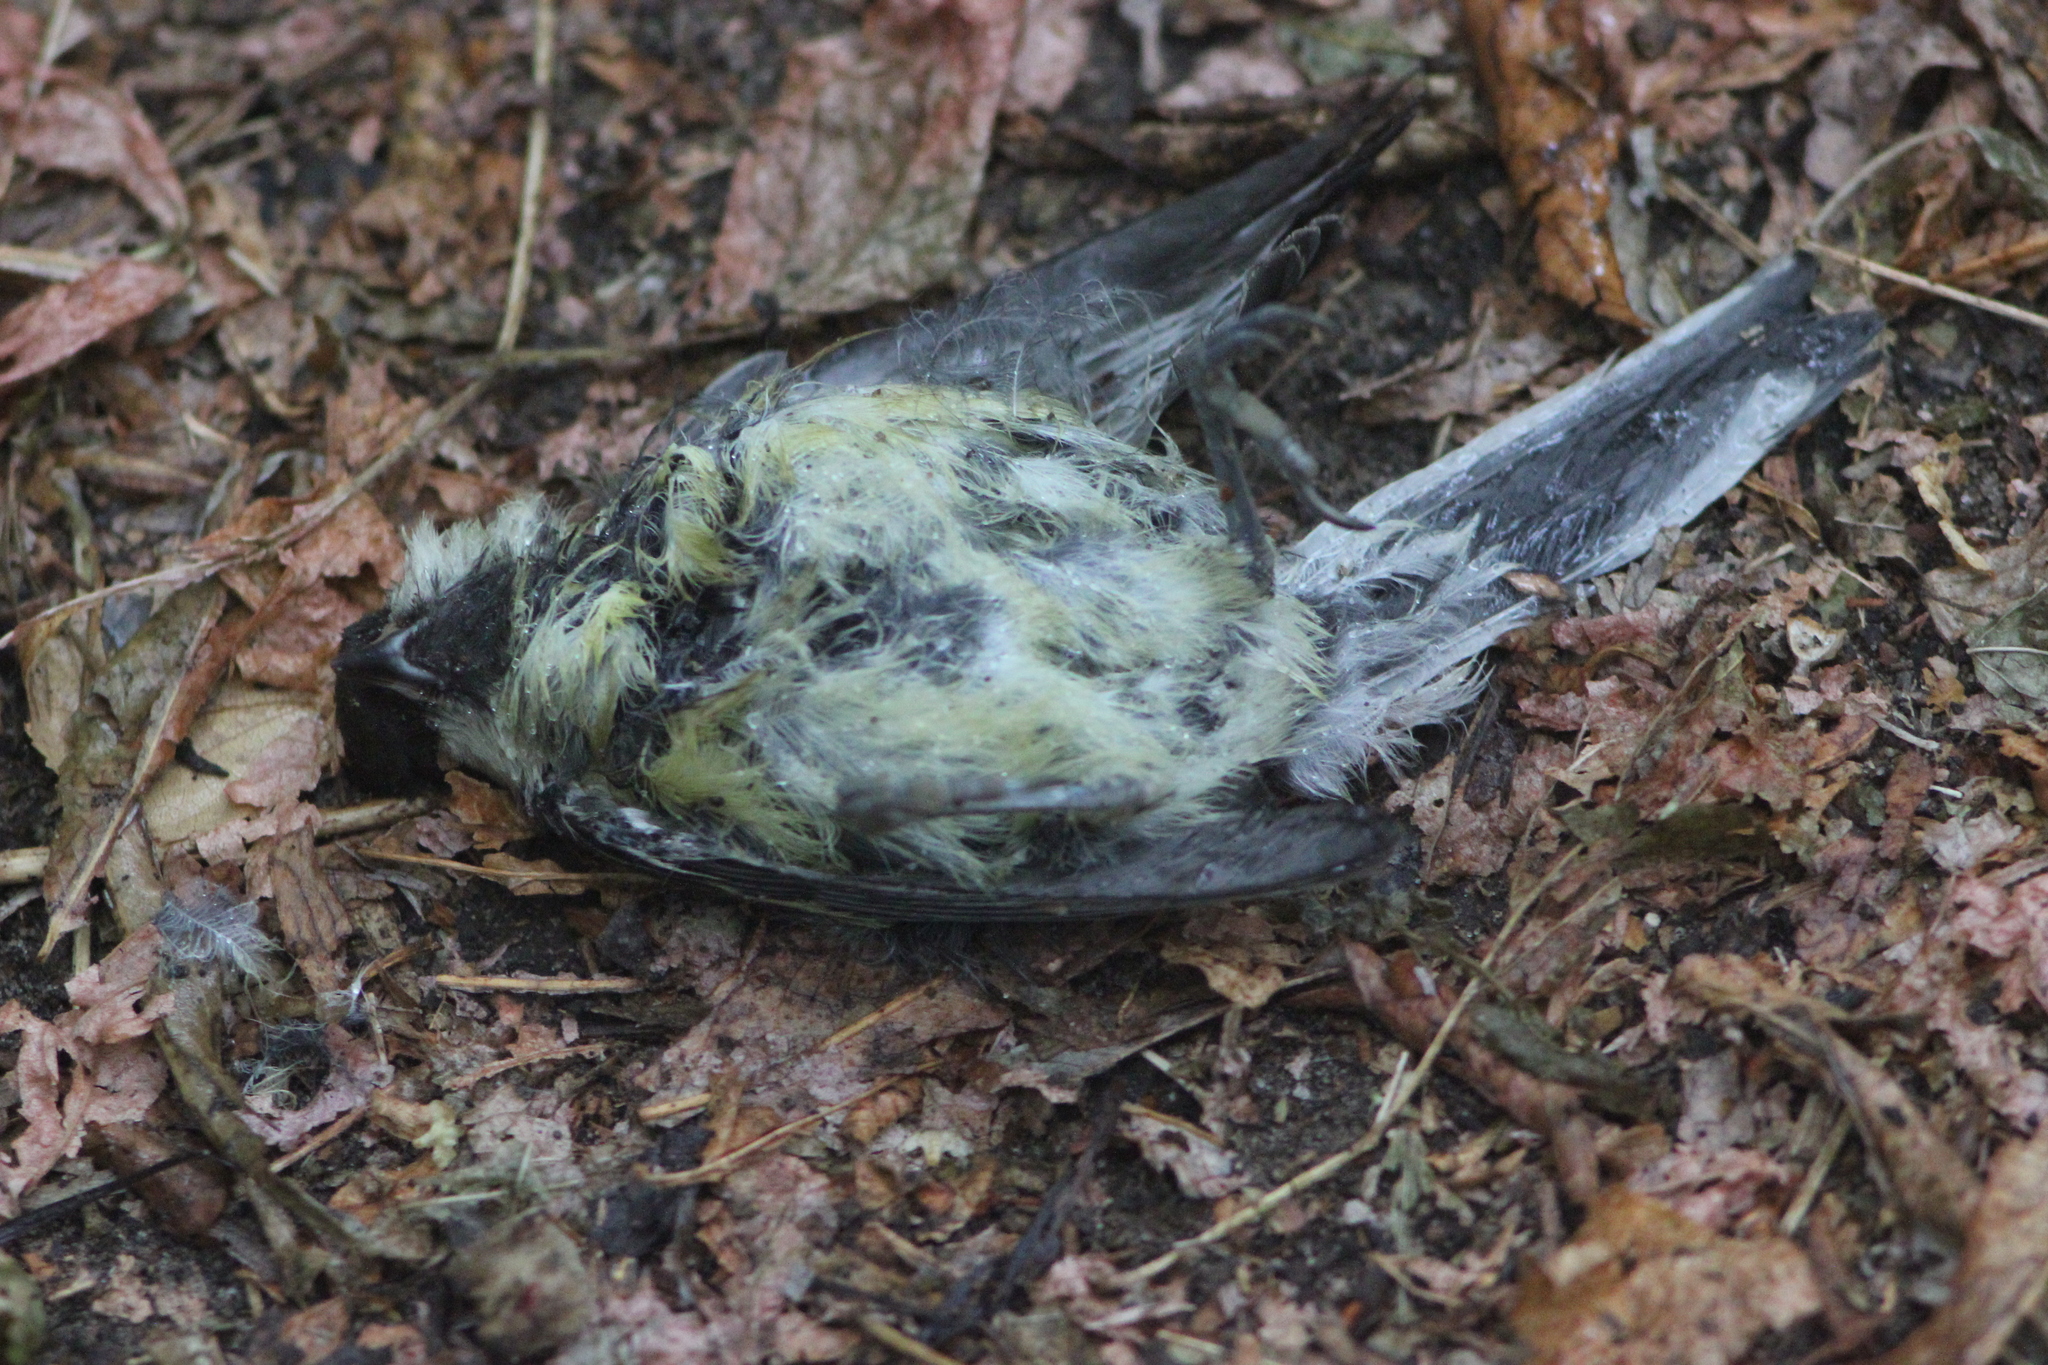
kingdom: Animalia
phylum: Chordata
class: Aves
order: Passeriformes
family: Paridae
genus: Parus
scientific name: Parus major
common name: Great tit
